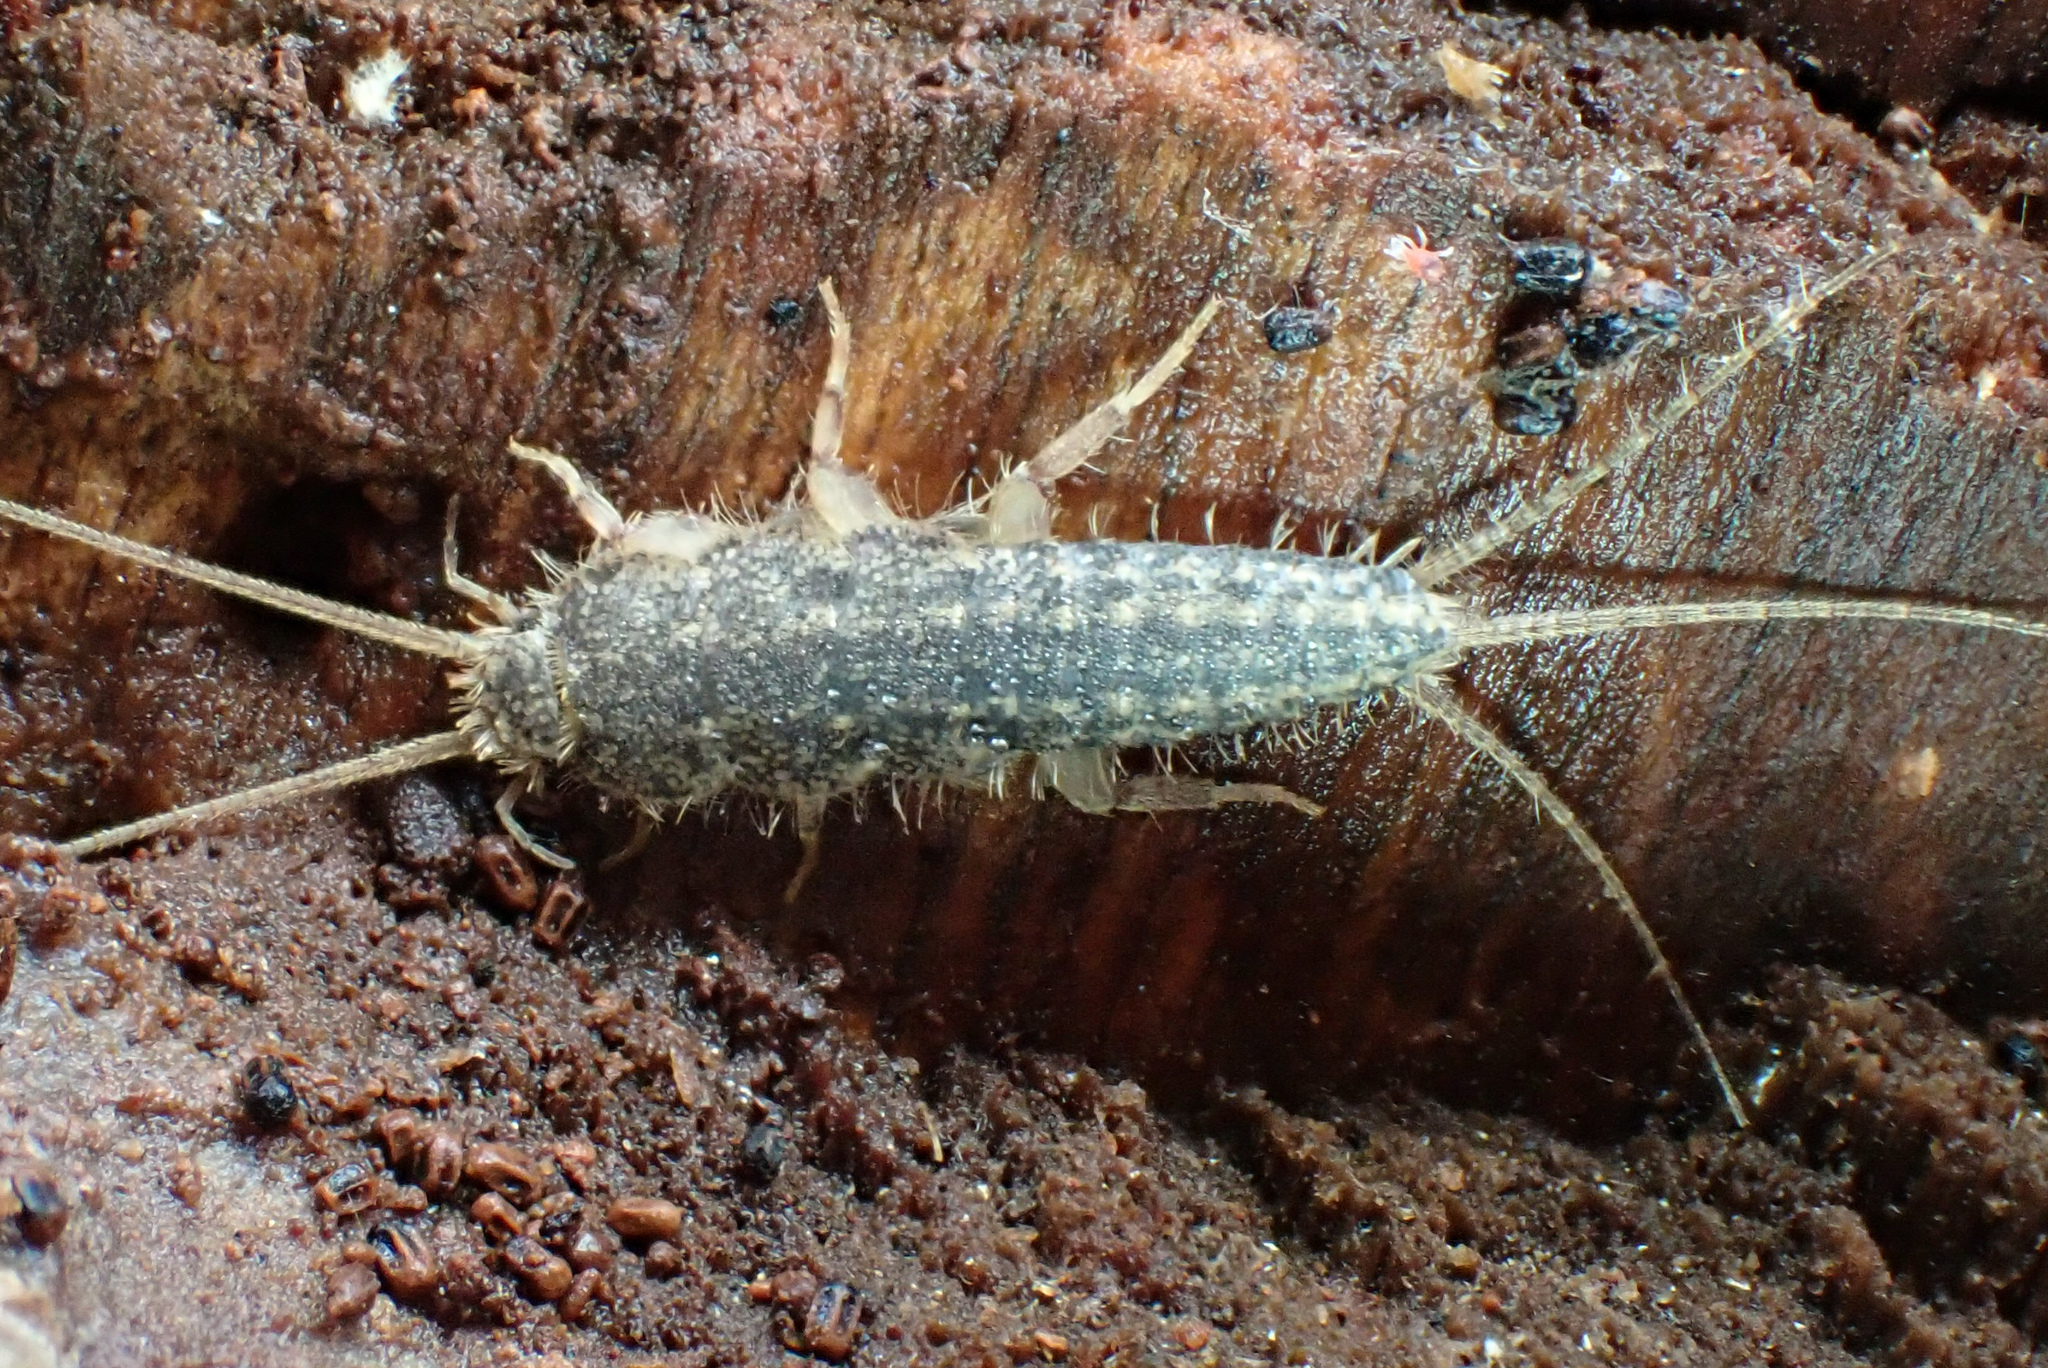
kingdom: Animalia
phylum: Arthropoda
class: Insecta
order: Zygentoma
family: Lepismatidae
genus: Ctenolepisma
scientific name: Ctenolepisma lineata
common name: Four-lined silverfish
